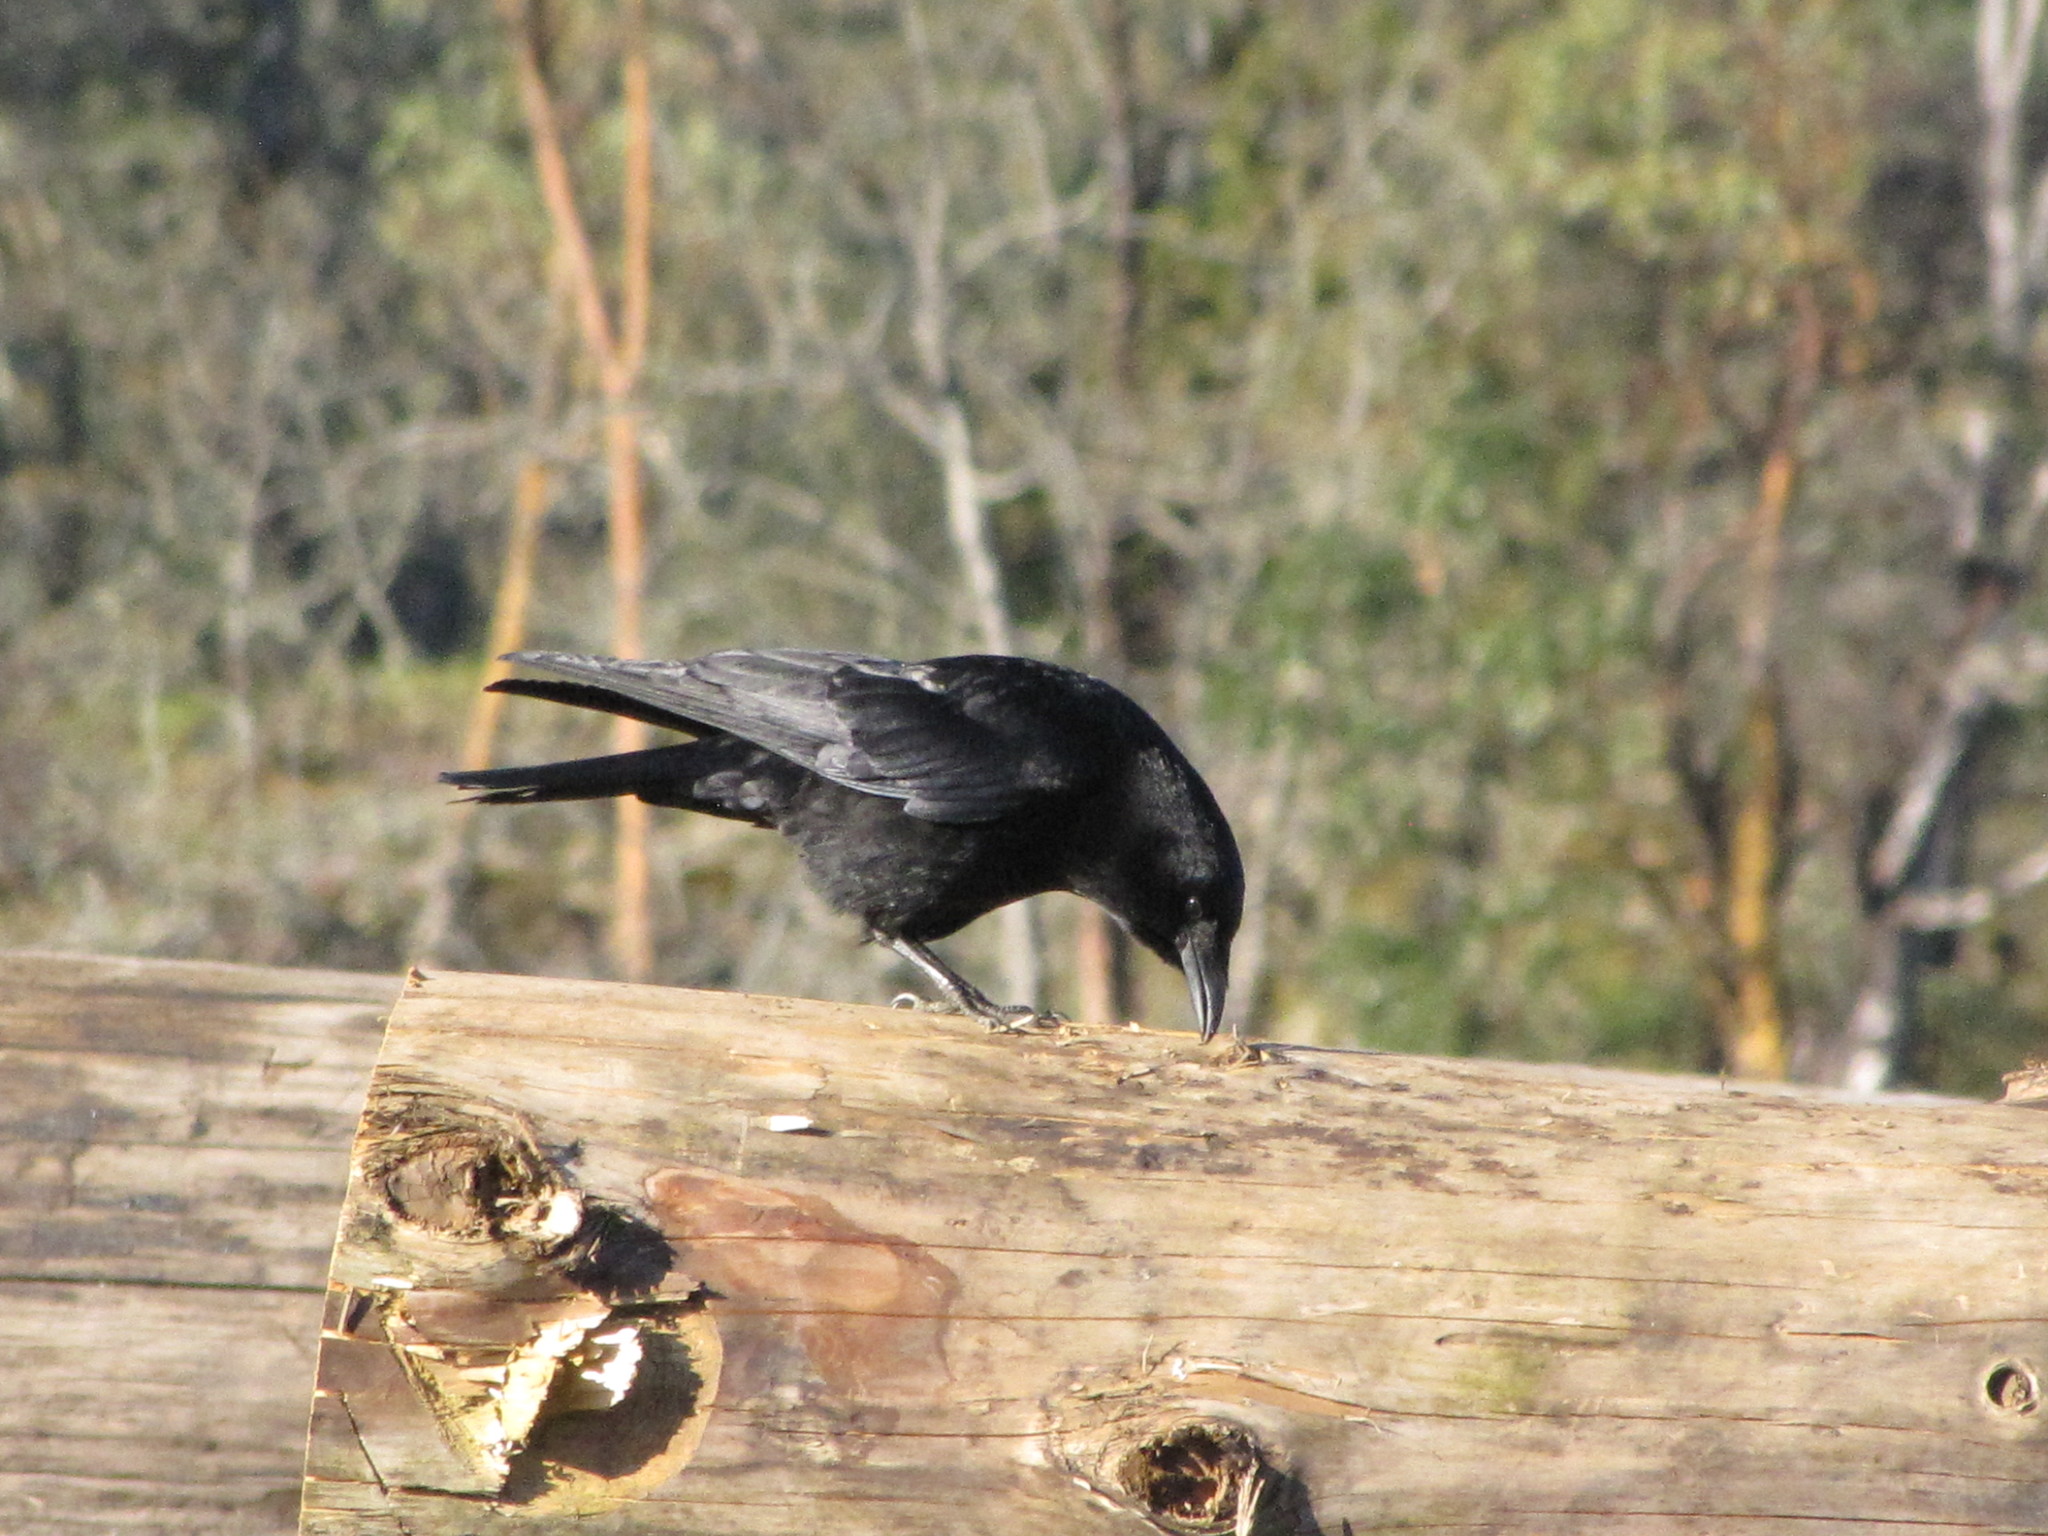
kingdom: Animalia
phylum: Chordata
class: Aves
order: Passeriformes
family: Corvidae
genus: Corvus
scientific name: Corvus brachyrhynchos
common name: American crow
